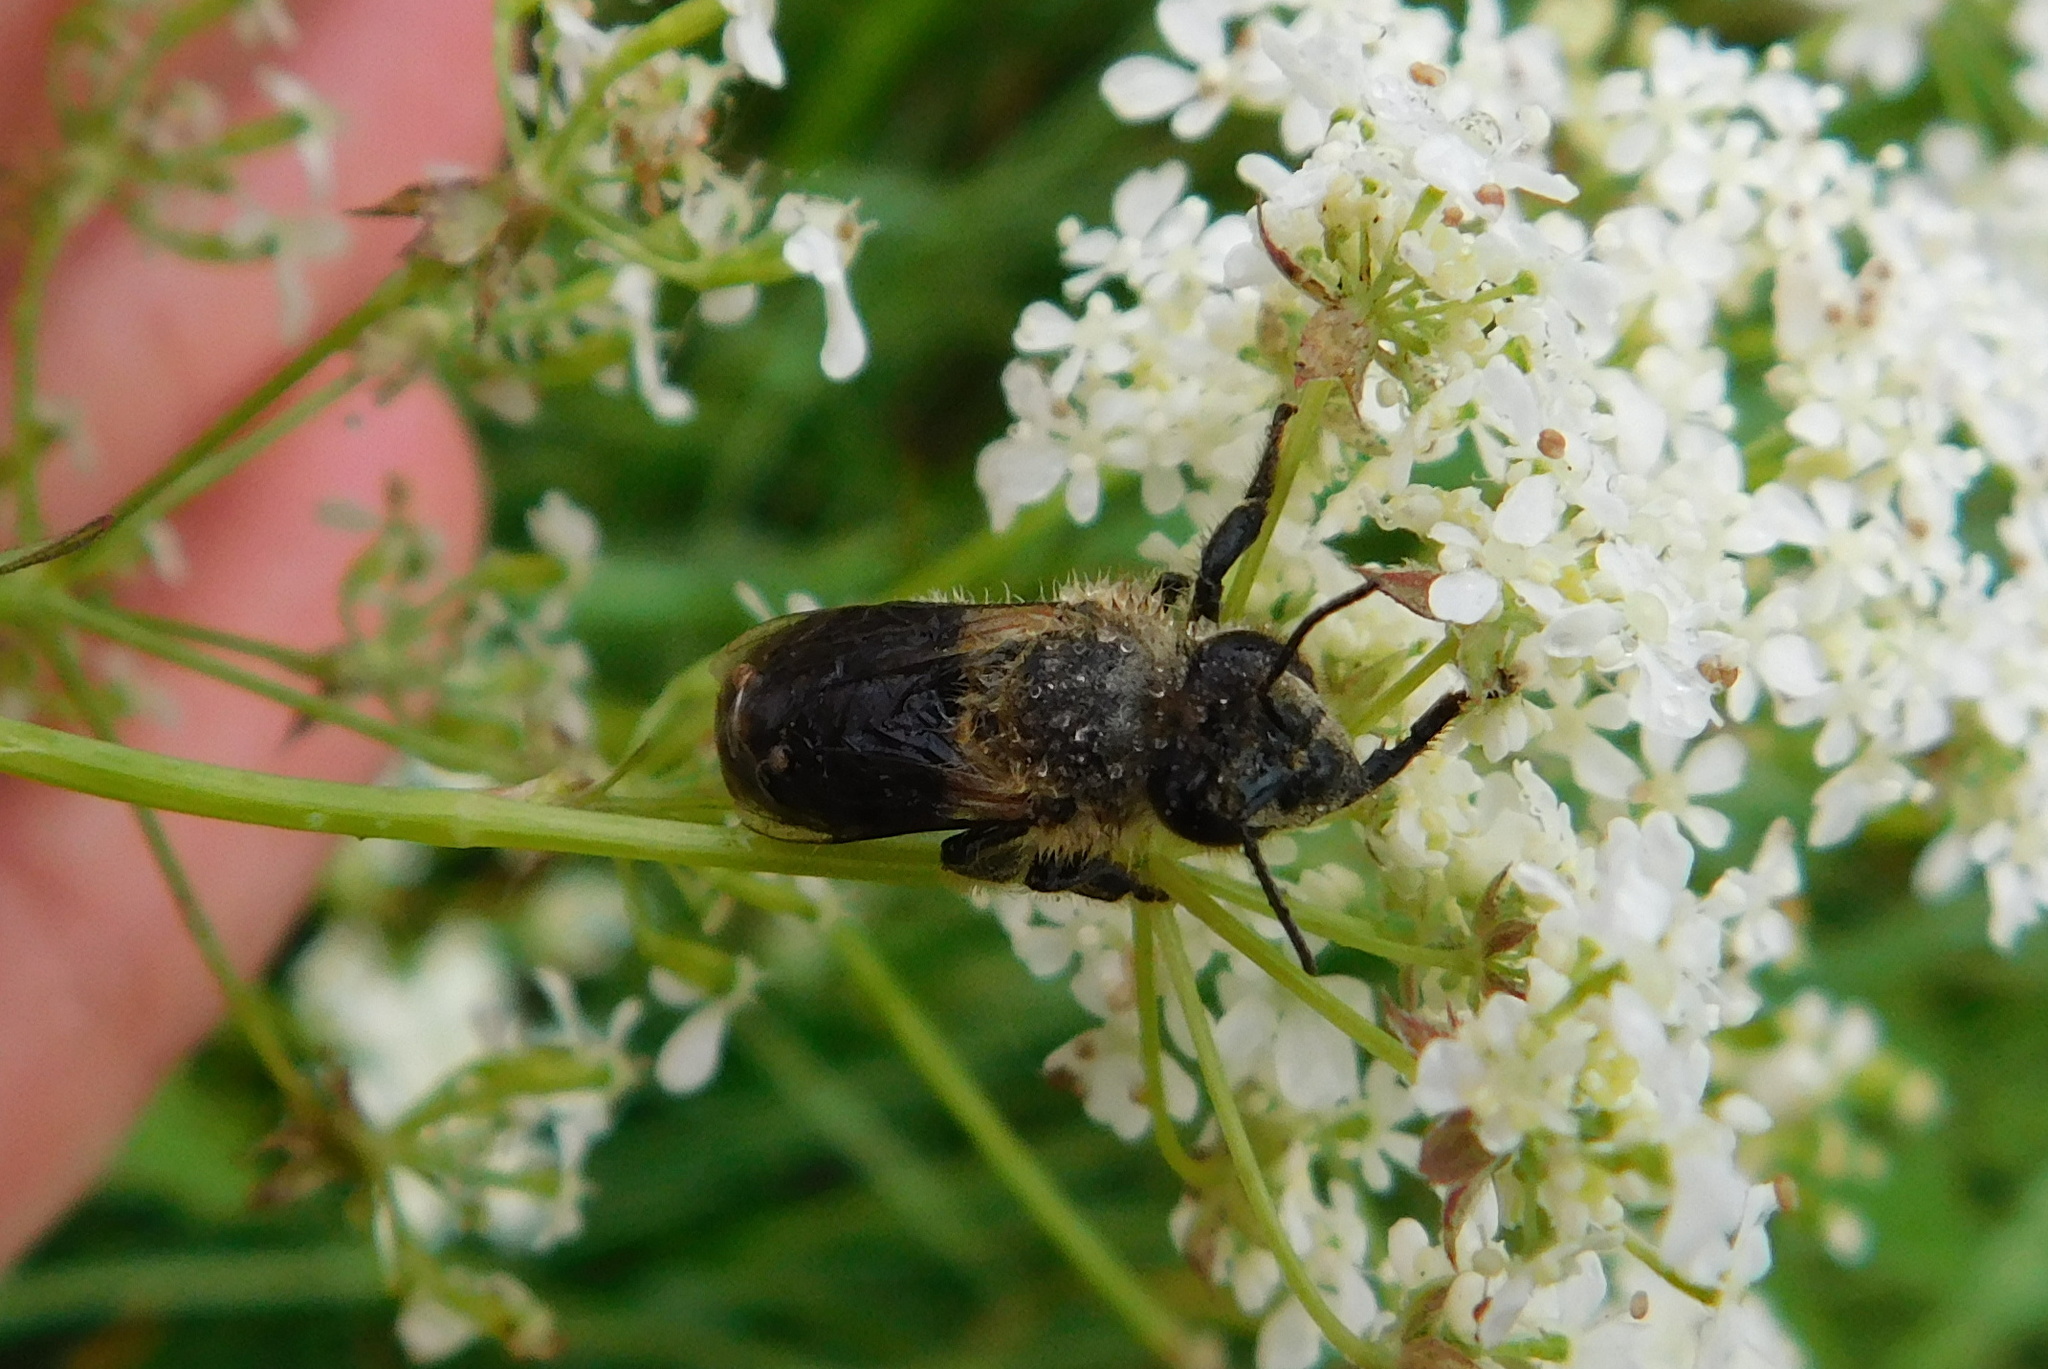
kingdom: Animalia
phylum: Arthropoda
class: Insecta
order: Hymenoptera
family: Apidae
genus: Apis
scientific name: Apis mellifera
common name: Honey bee
